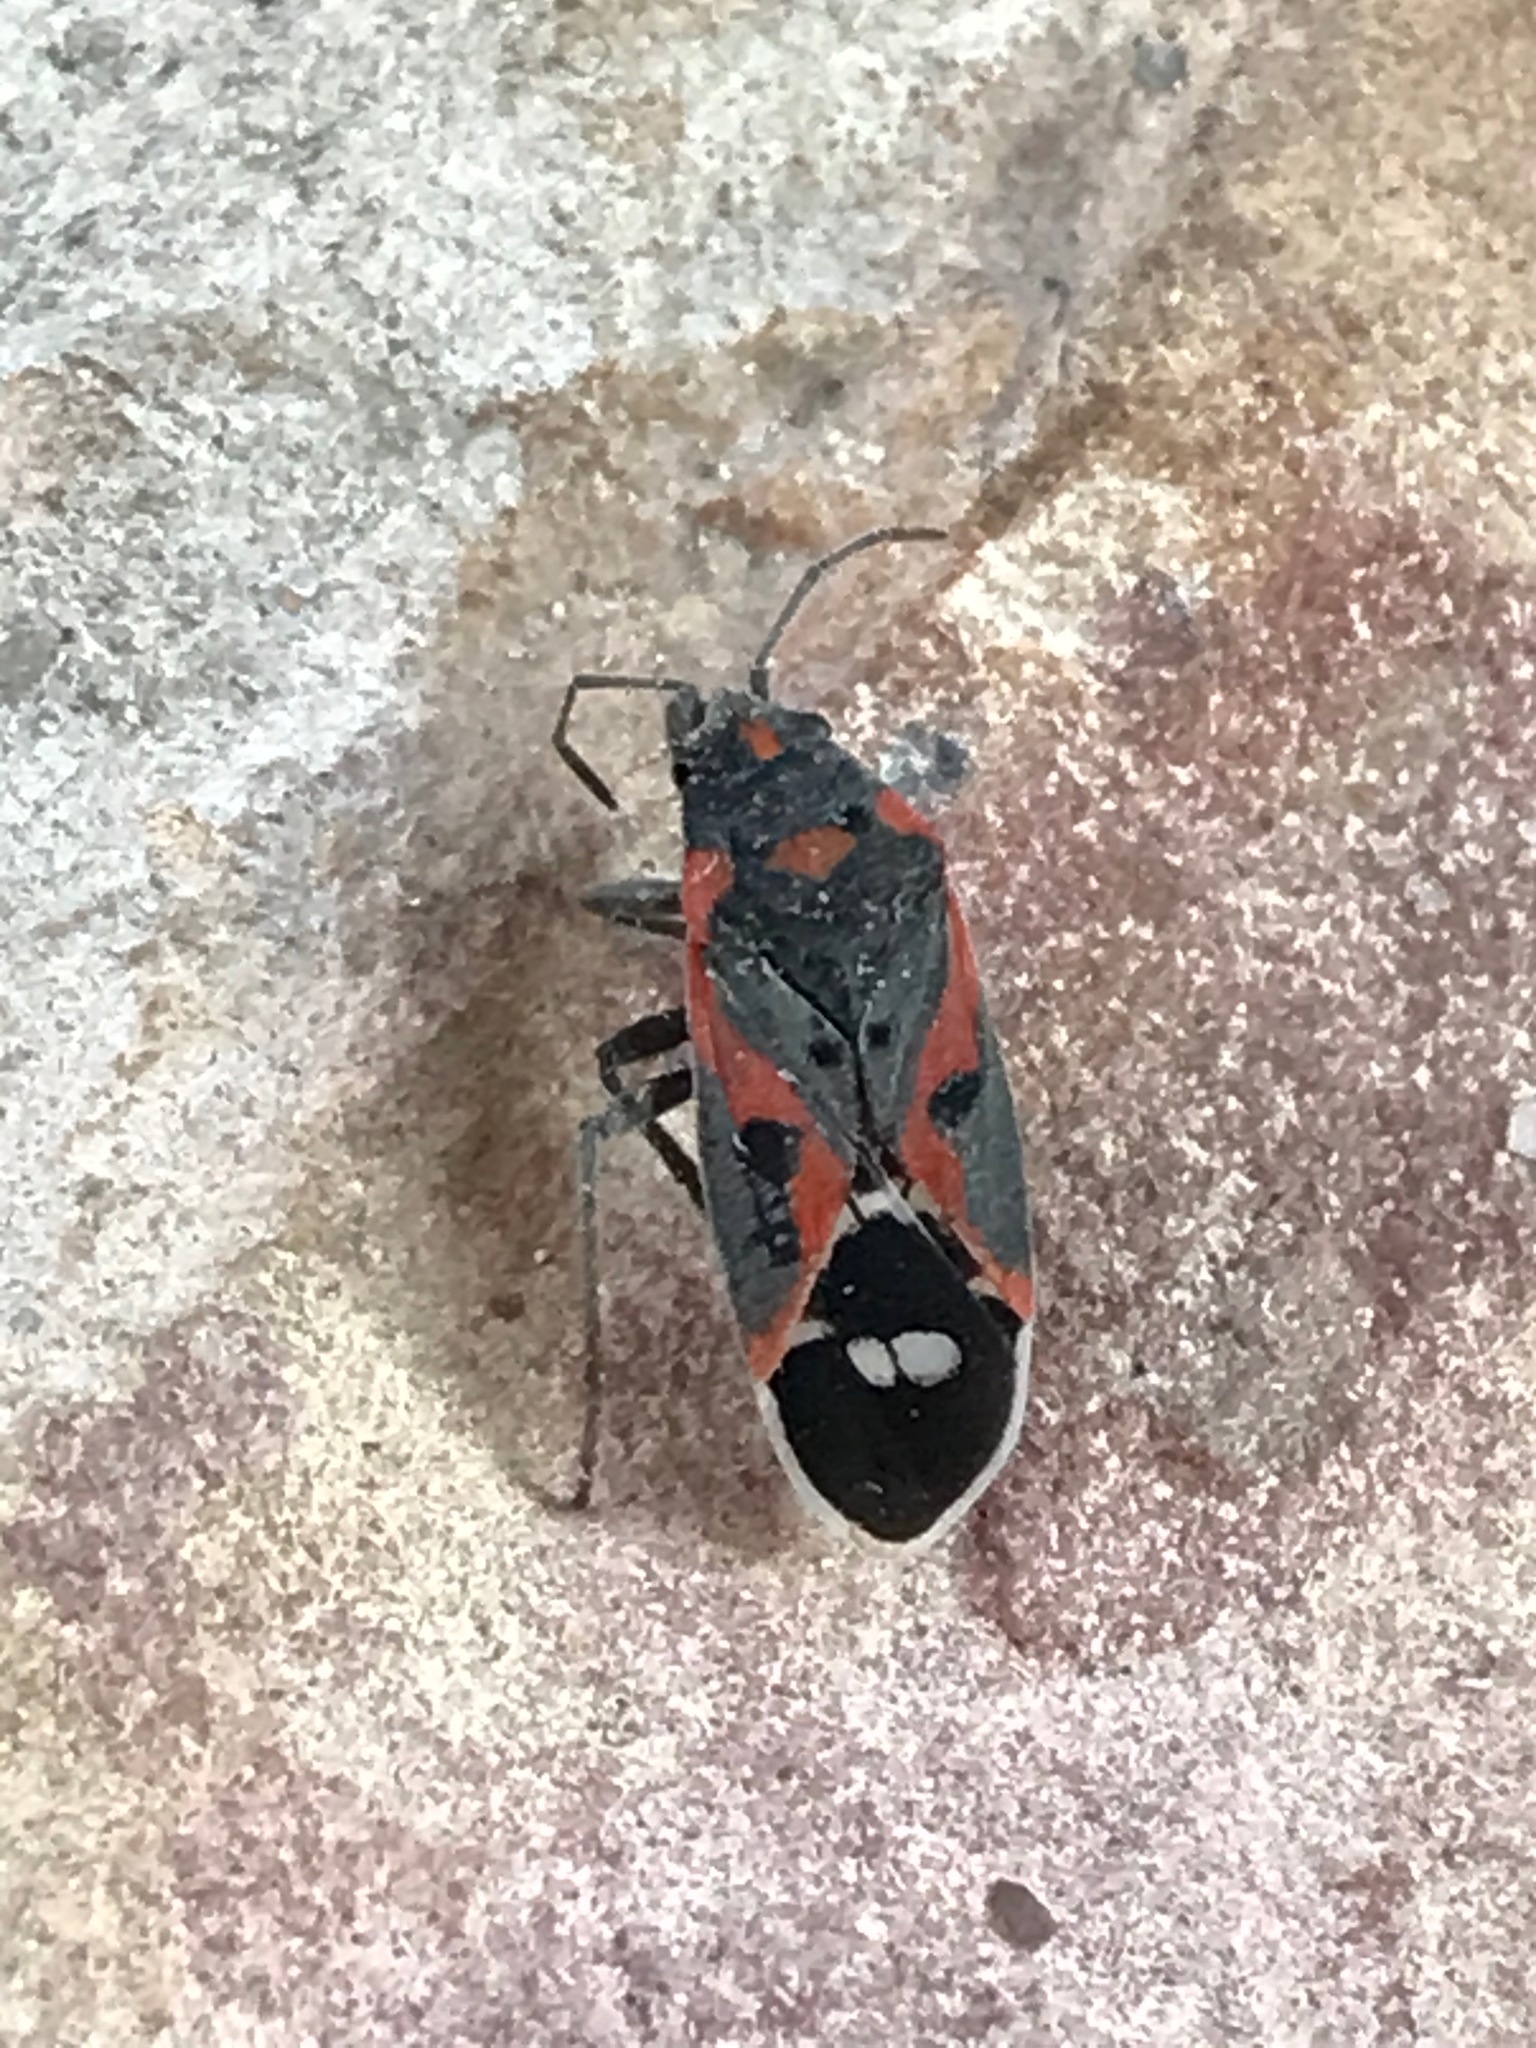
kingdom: Animalia
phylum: Arthropoda
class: Insecta
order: Hemiptera
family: Lygaeidae
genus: Lygaeus
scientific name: Lygaeus kalmii
